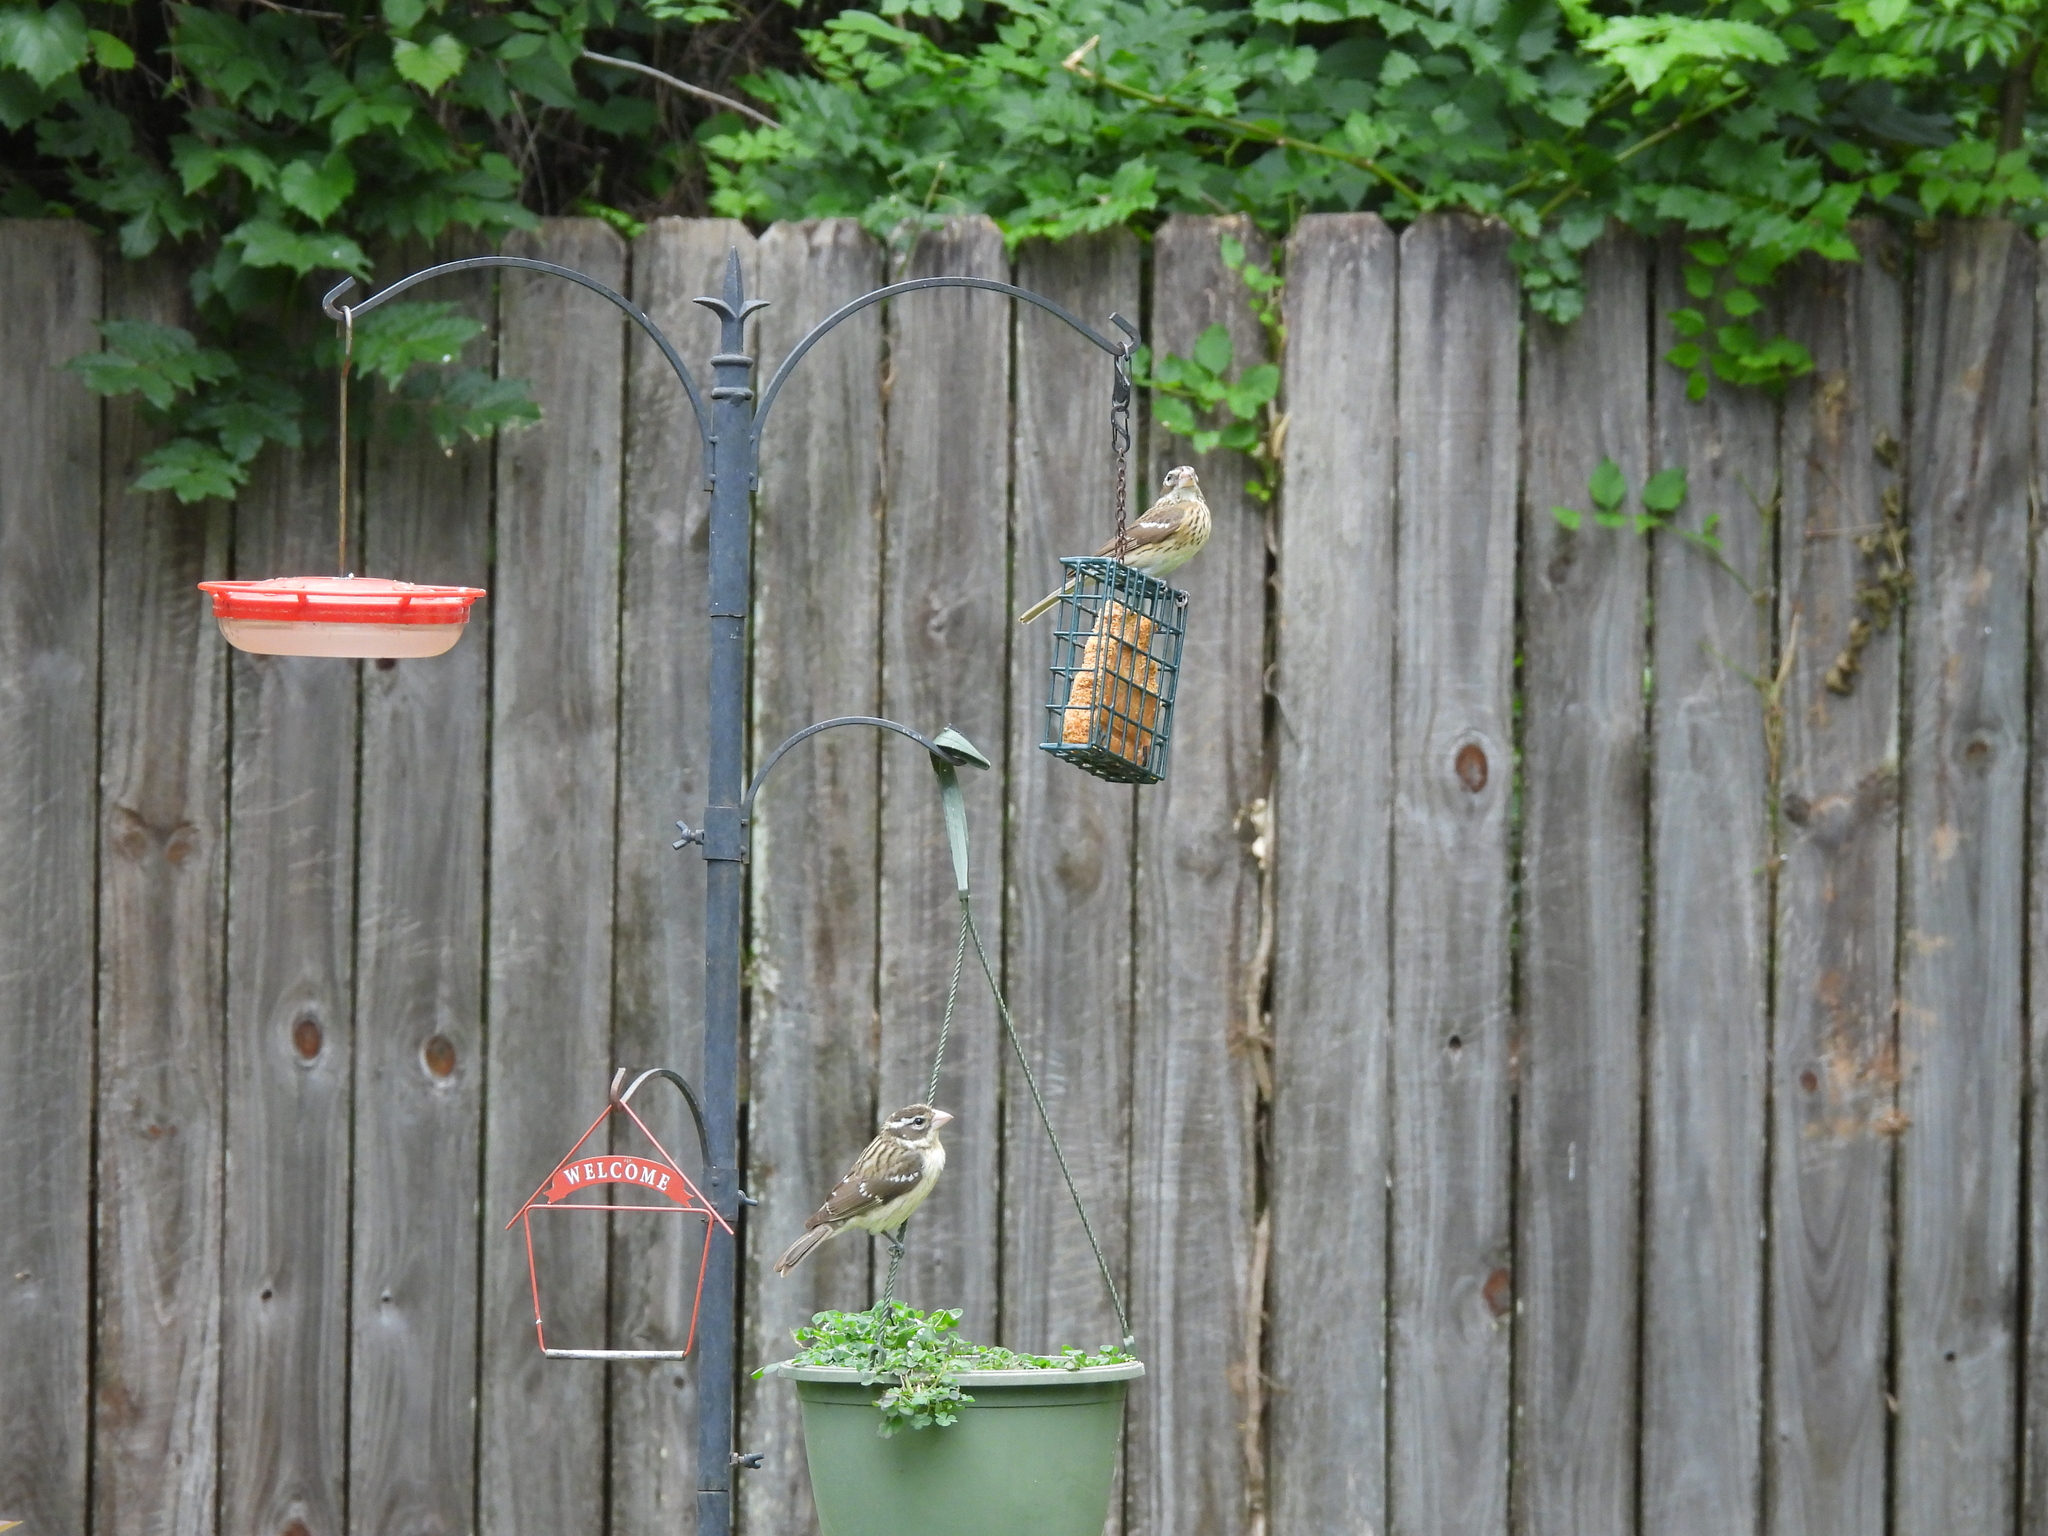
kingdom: Animalia
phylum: Chordata
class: Aves
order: Passeriformes
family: Cardinalidae
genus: Pheucticus
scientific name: Pheucticus ludovicianus
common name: Rose-breasted grosbeak
